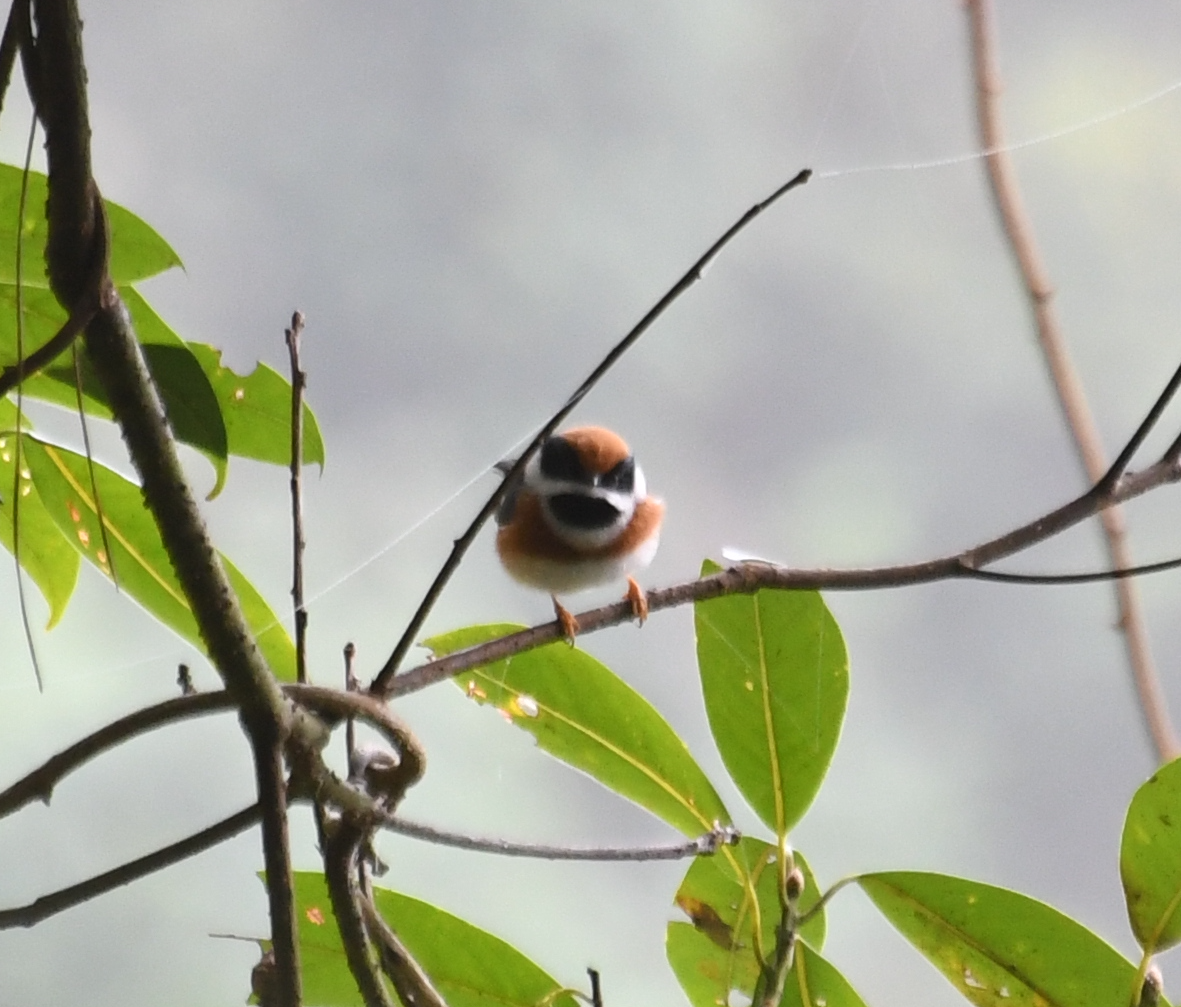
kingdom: Animalia
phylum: Chordata
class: Aves
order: Passeriformes
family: Aegithalidae
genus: Aegithalos
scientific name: Aegithalos concinnus
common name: Black-throated bushtit
